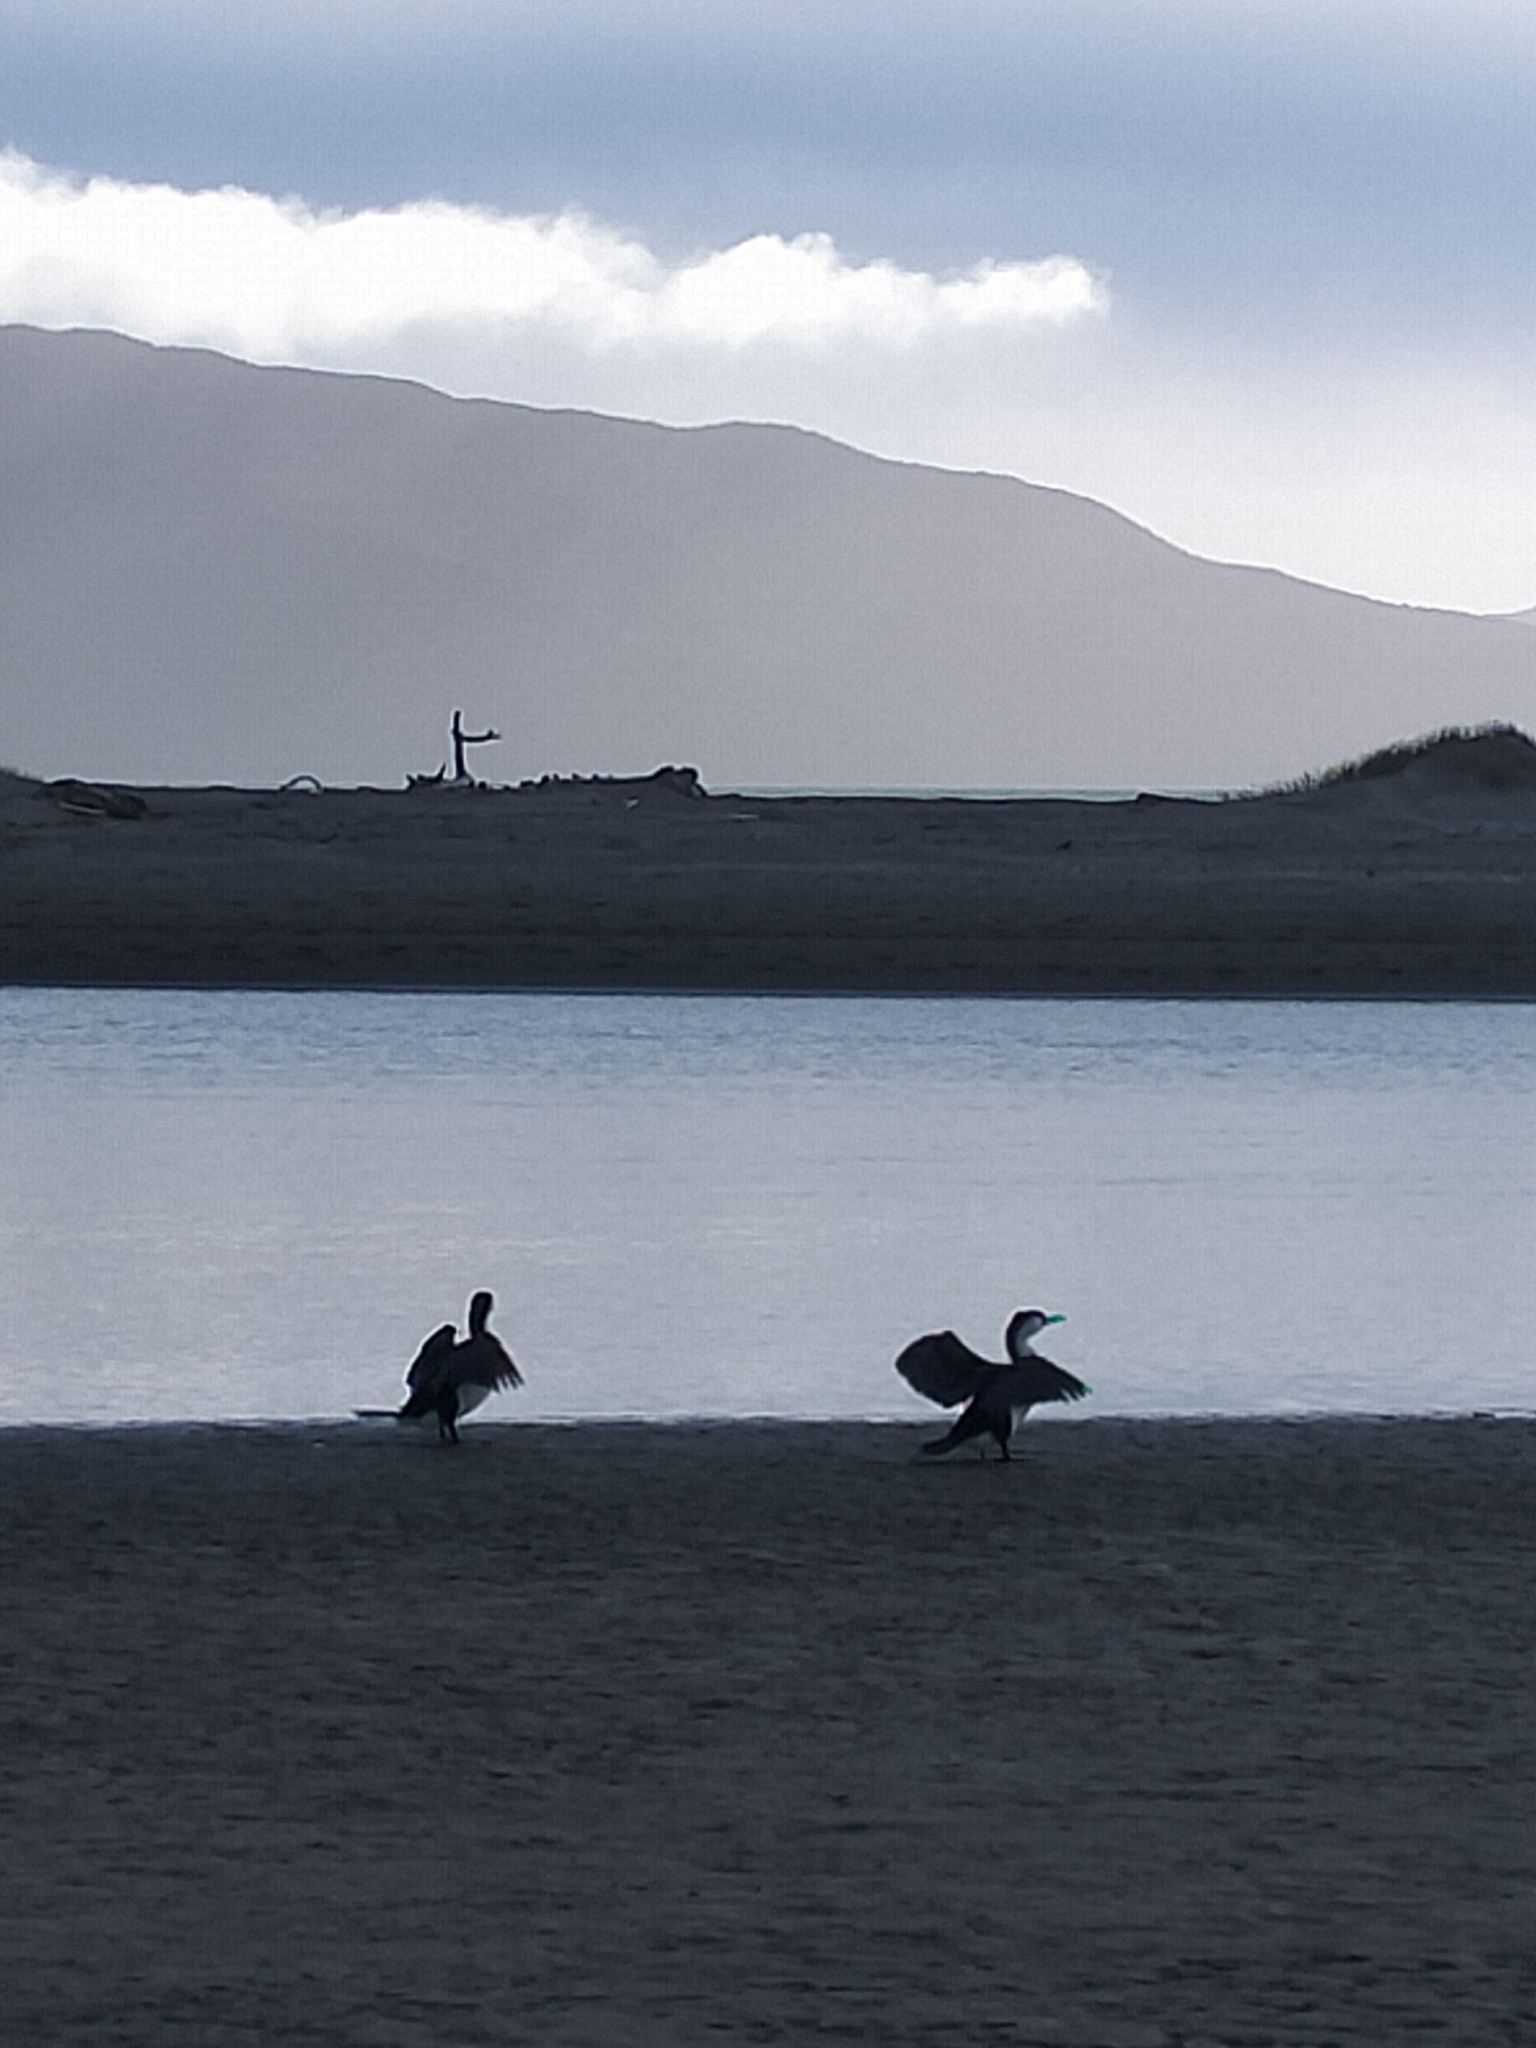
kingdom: Animalia
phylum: Chordata
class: Aves
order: Suliformes
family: Phalacrocoracidae
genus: Phalacrocorax
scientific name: Phalacrocorax varius
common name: Pied cormorant
